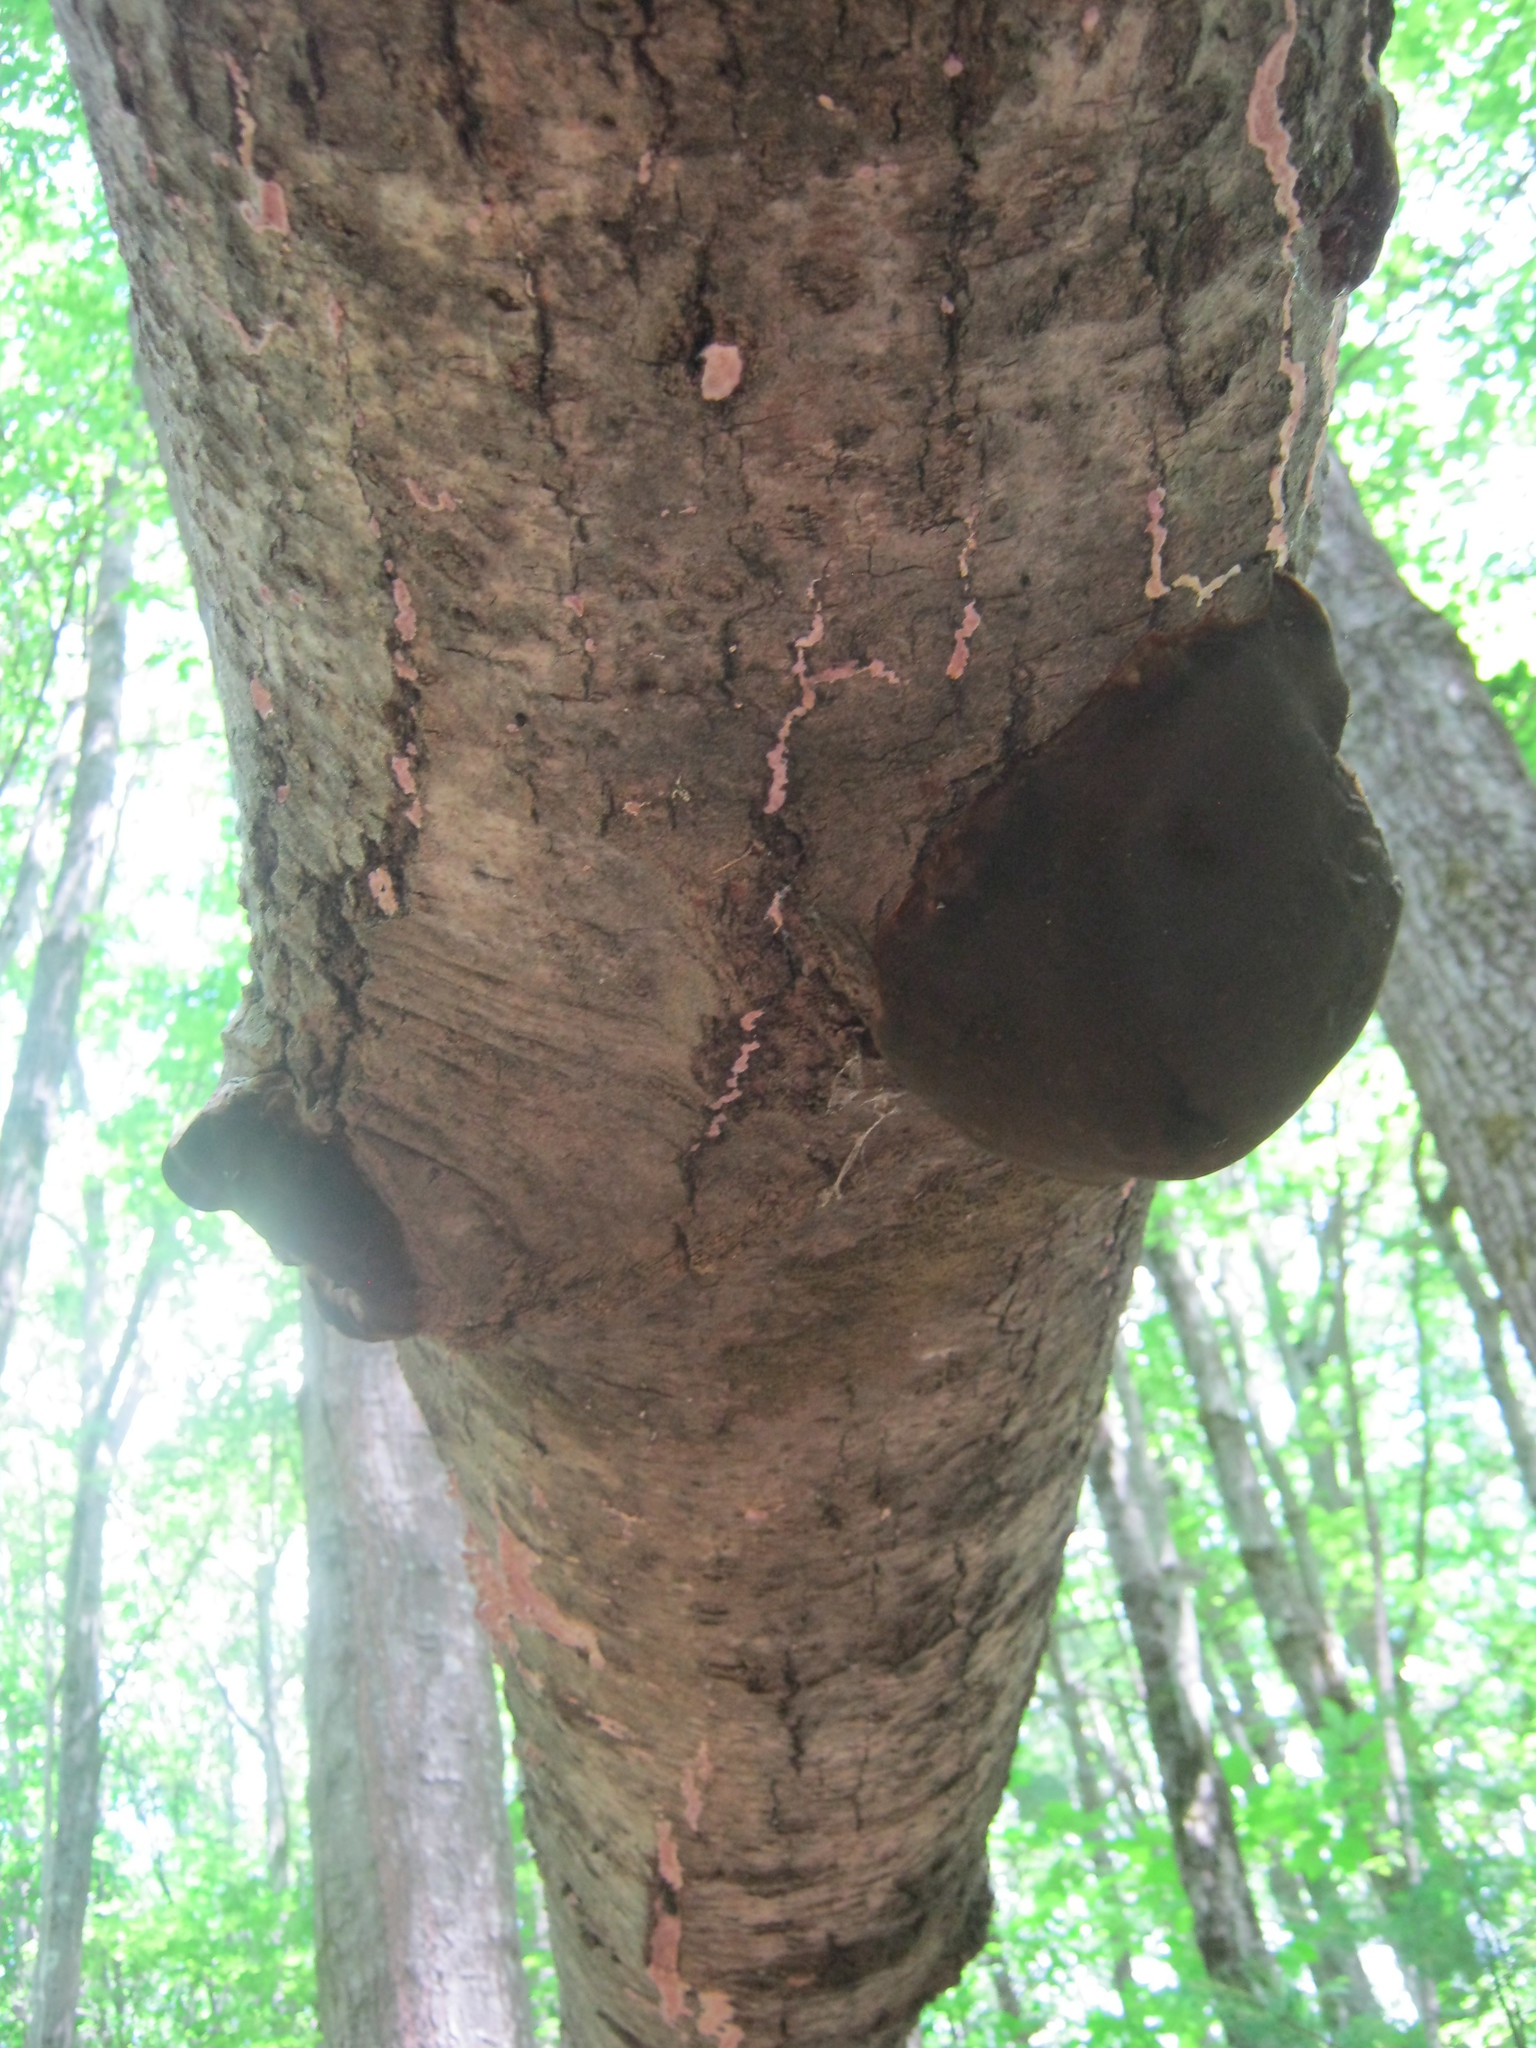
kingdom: Fungi
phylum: Basidiomycota
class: Agaricomycetes
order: Hymenochaetales
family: Hymenochaetaceae
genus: Phellinus
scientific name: Phellinus tremulae
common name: Aspen bracket
